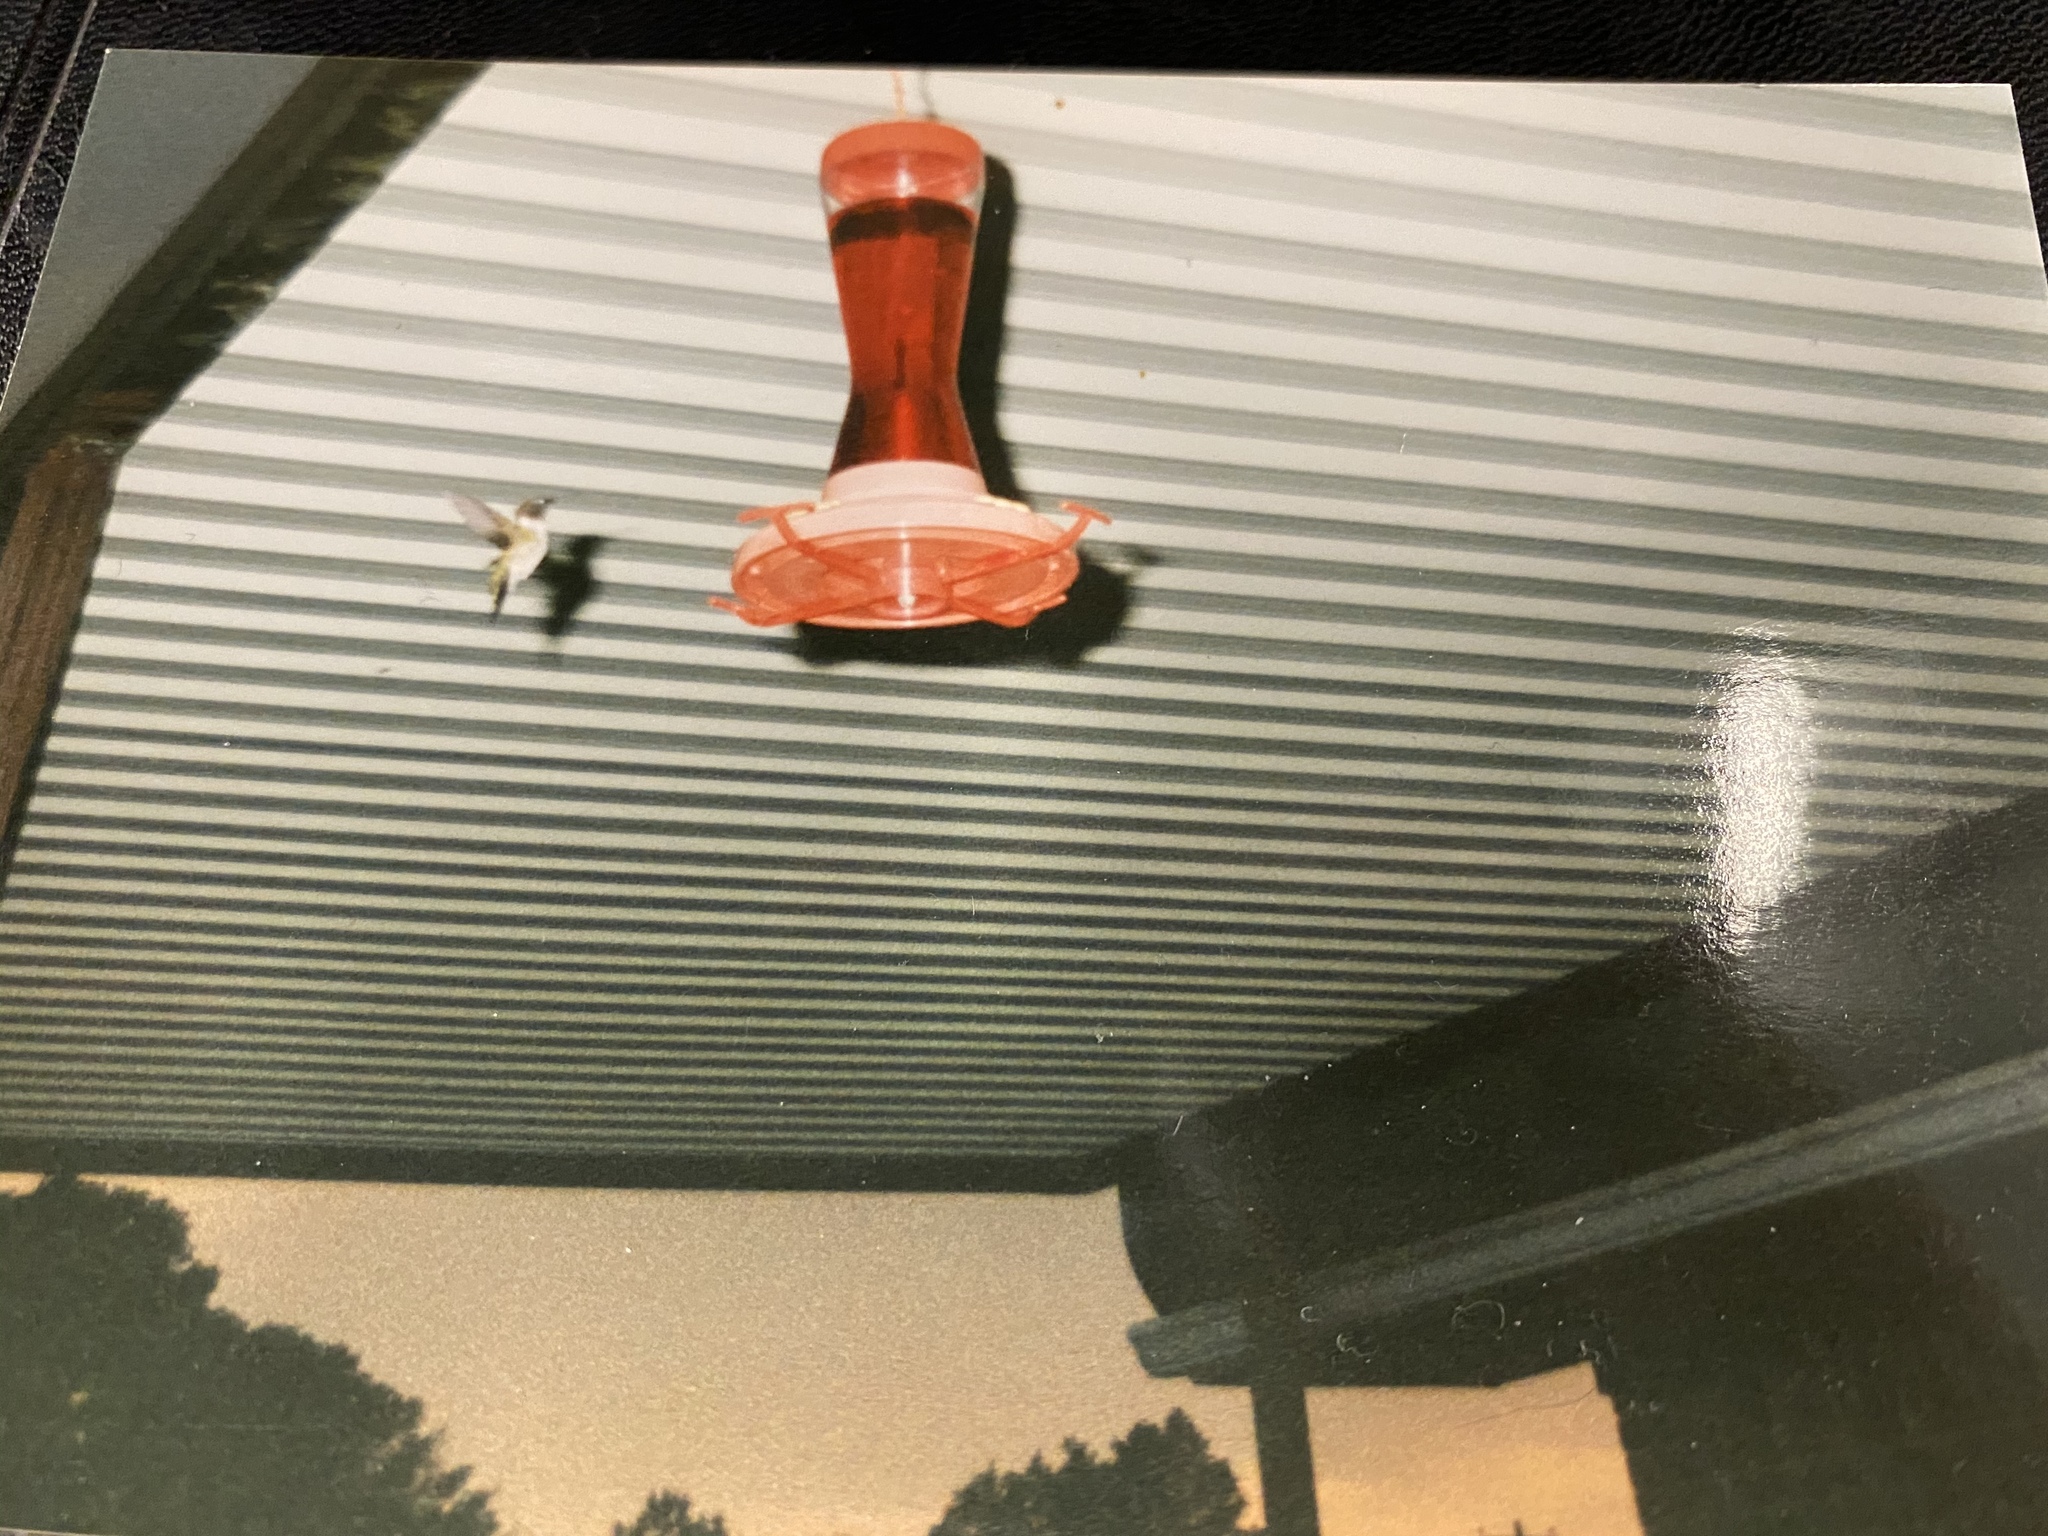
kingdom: Animalia
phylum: Chordata
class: Aves
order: Apodiformes
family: Trochilidae
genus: Archilochus
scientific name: Archilochus colubris
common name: Ruby-throated hummingbird
